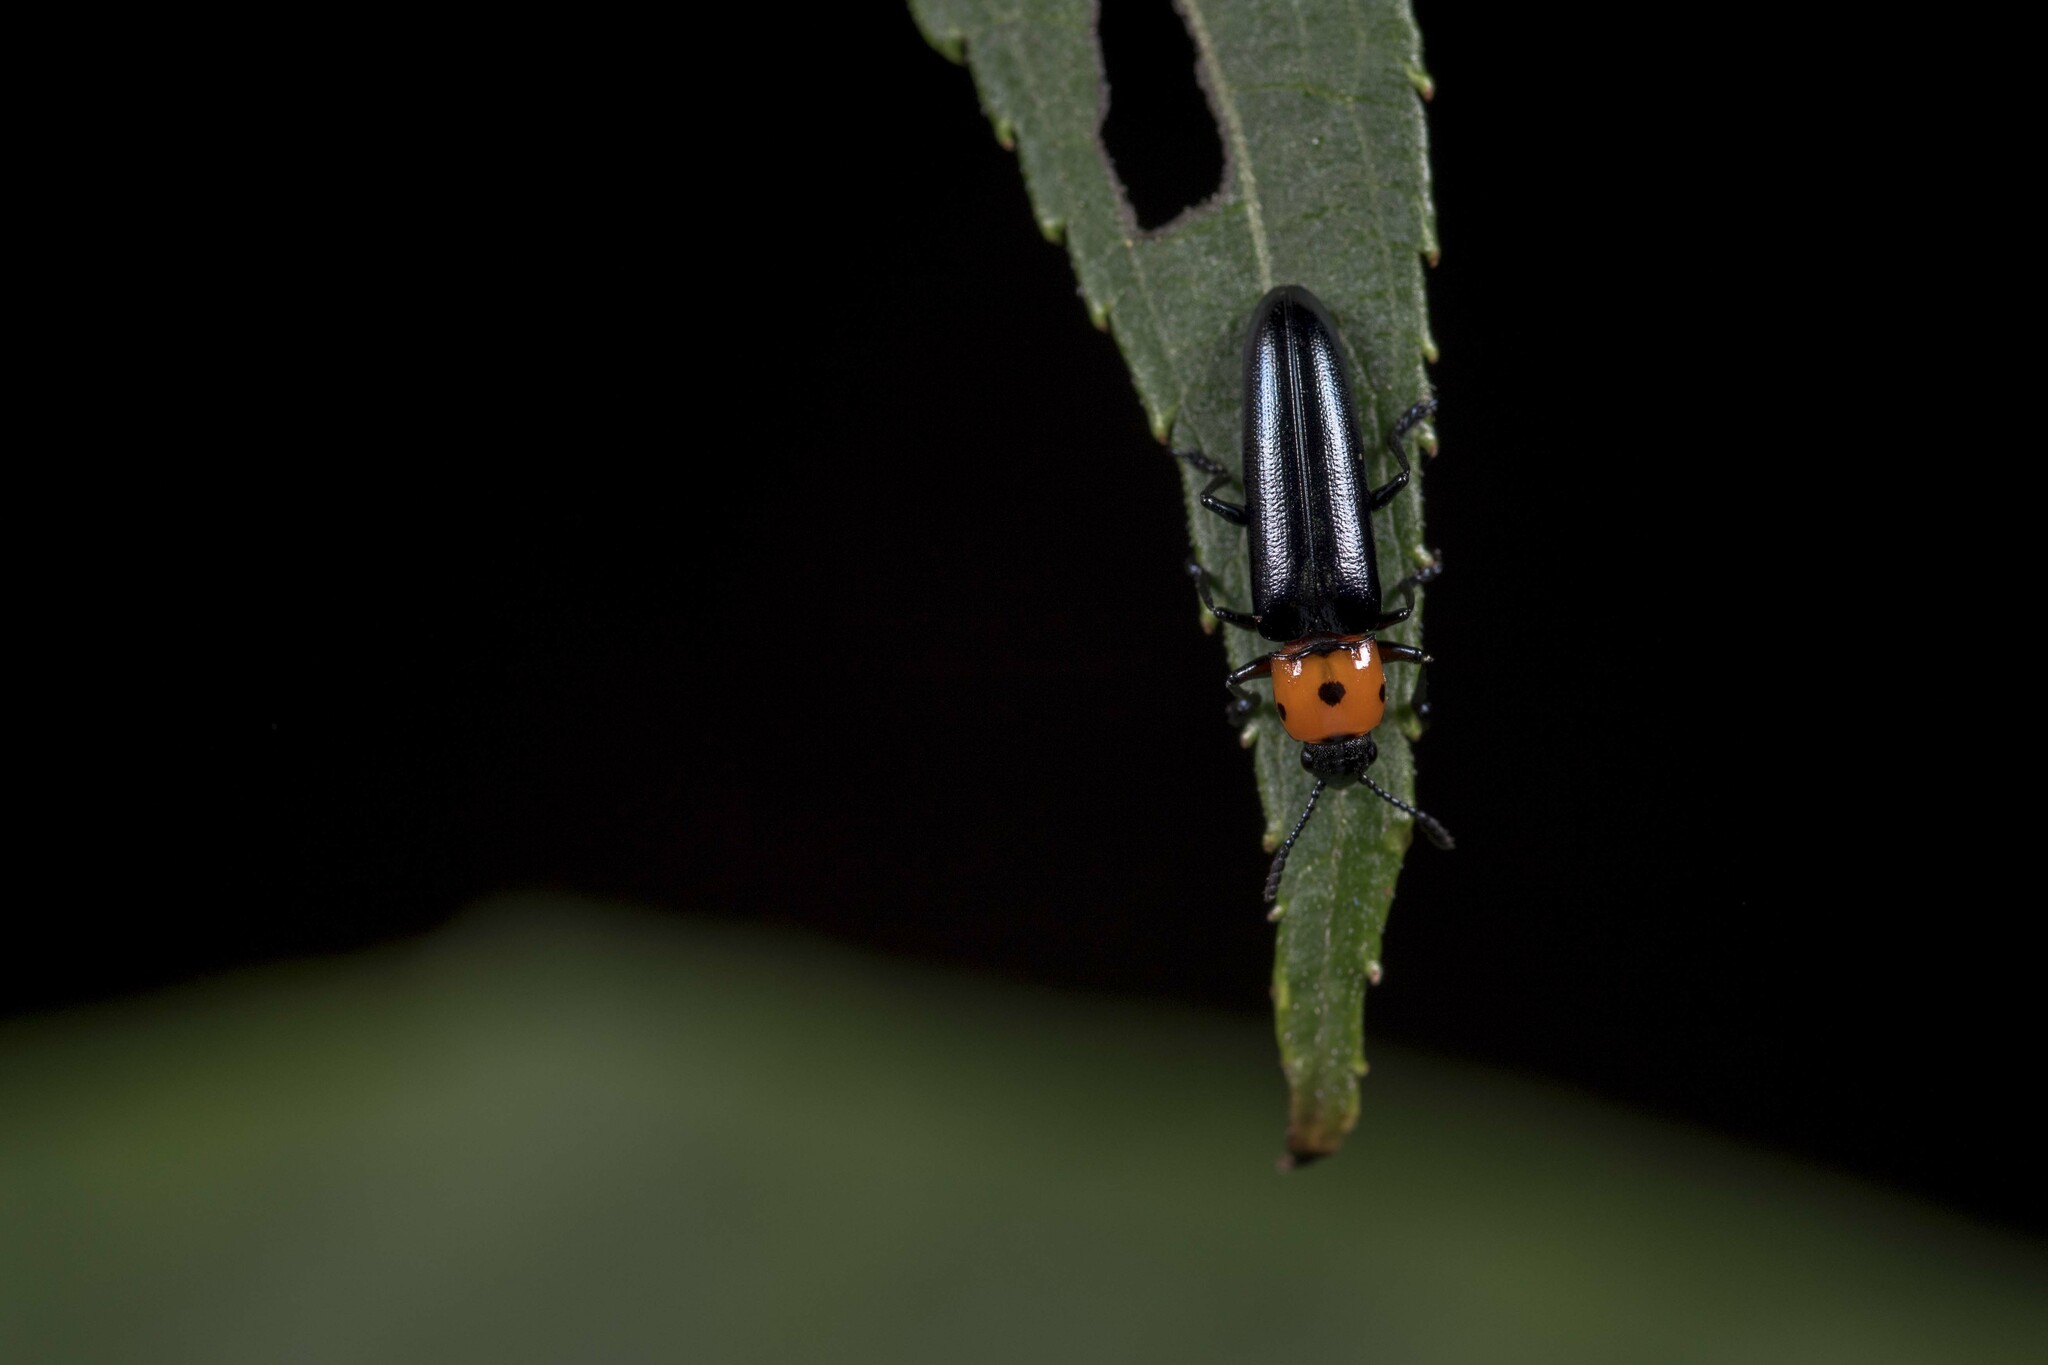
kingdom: Animalia
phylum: Arthropoda
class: Insecta
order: Coleoptera
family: Erotylidae
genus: Tetraphala
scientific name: Tetraphala collaris
